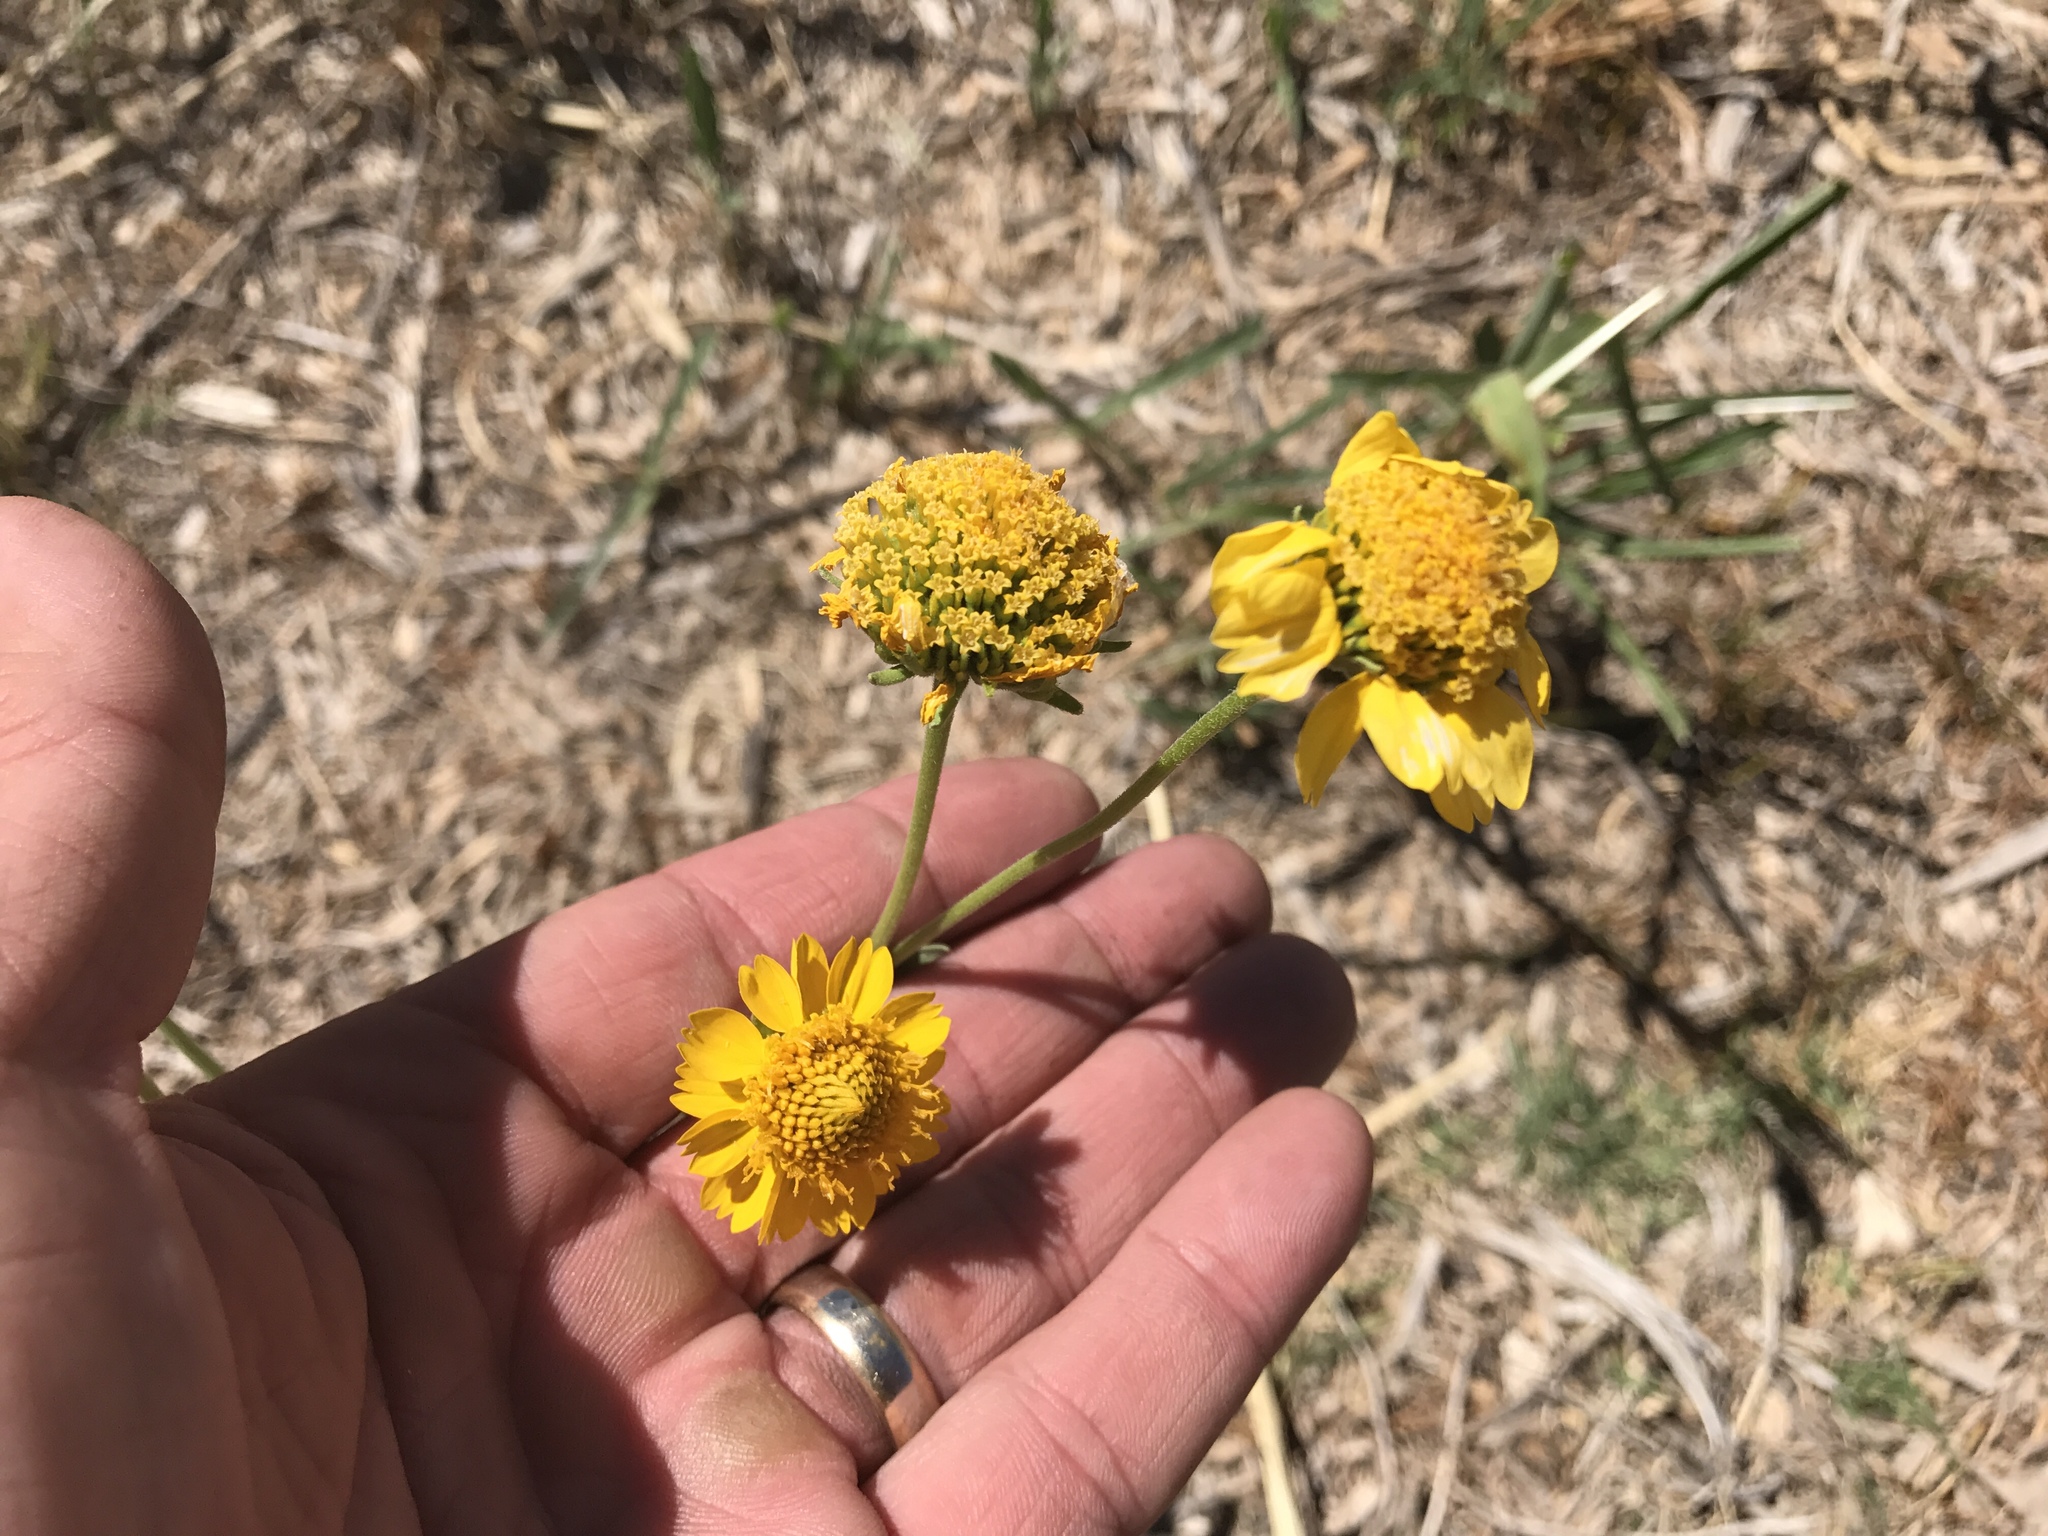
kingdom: Plantae
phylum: Tracheophyta
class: Magnoliopsida
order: Asterales
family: Asteraceae
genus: Verbesina
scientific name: Verbesina encelioides
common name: Golden crownbeard
